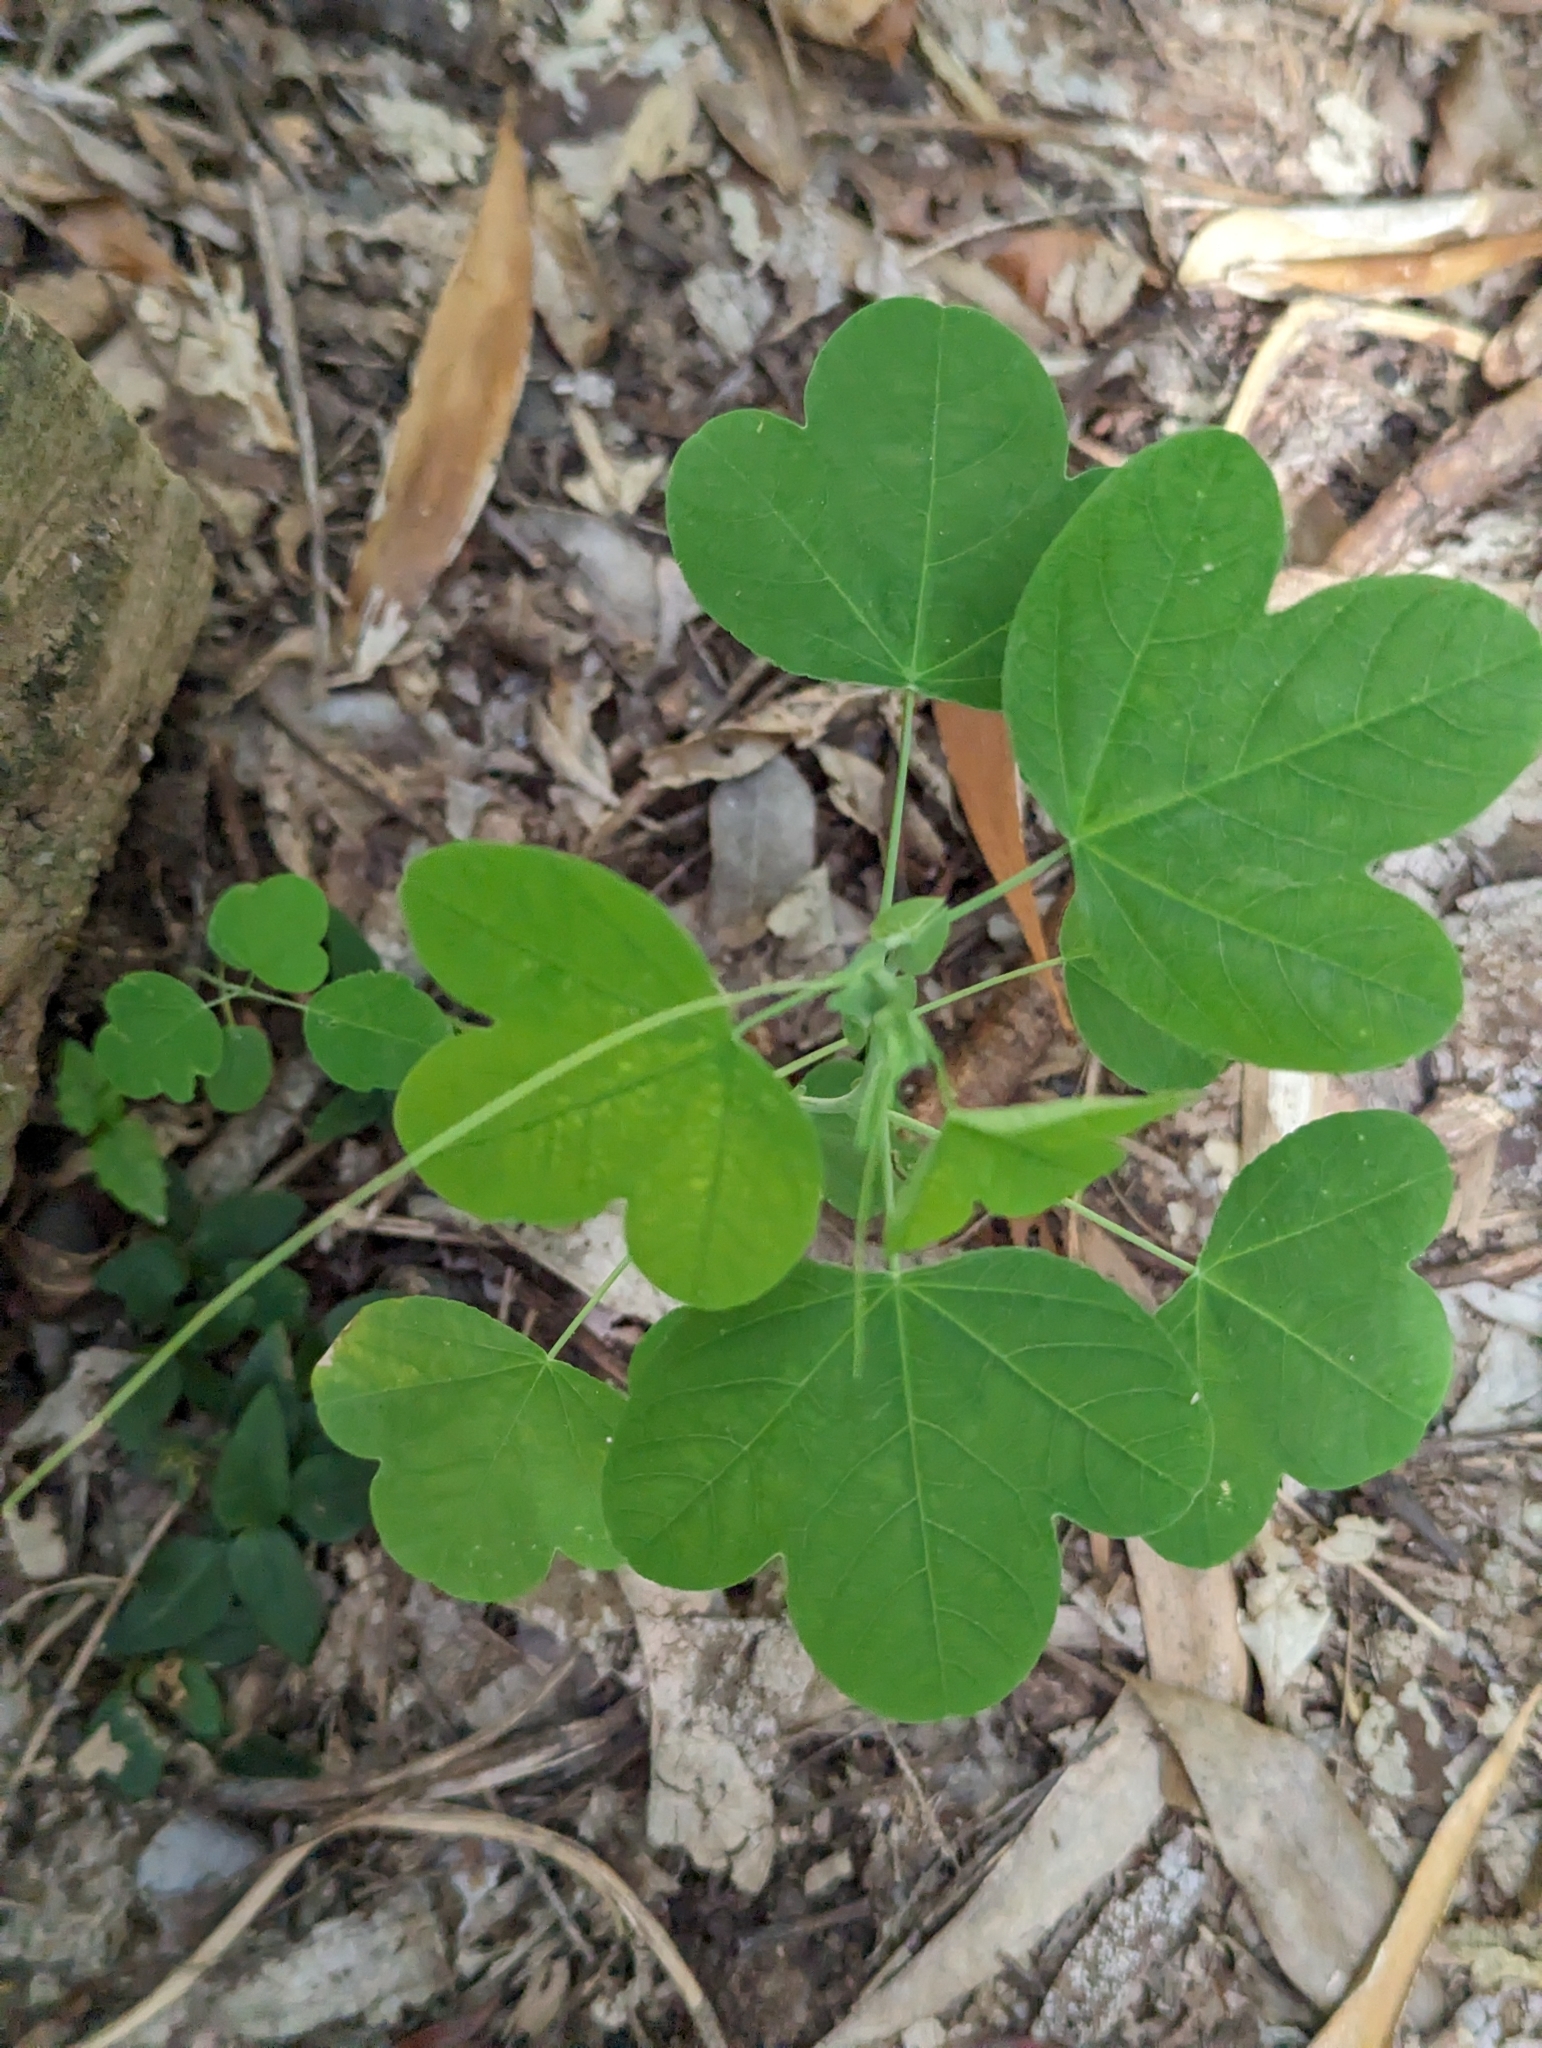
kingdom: Plantae
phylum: Tracheophyta
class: Magnoliopsida
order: Malpighiales
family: Passifloraceae
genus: Passiflora
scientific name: Passiflora subpeltata
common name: White passionflower
